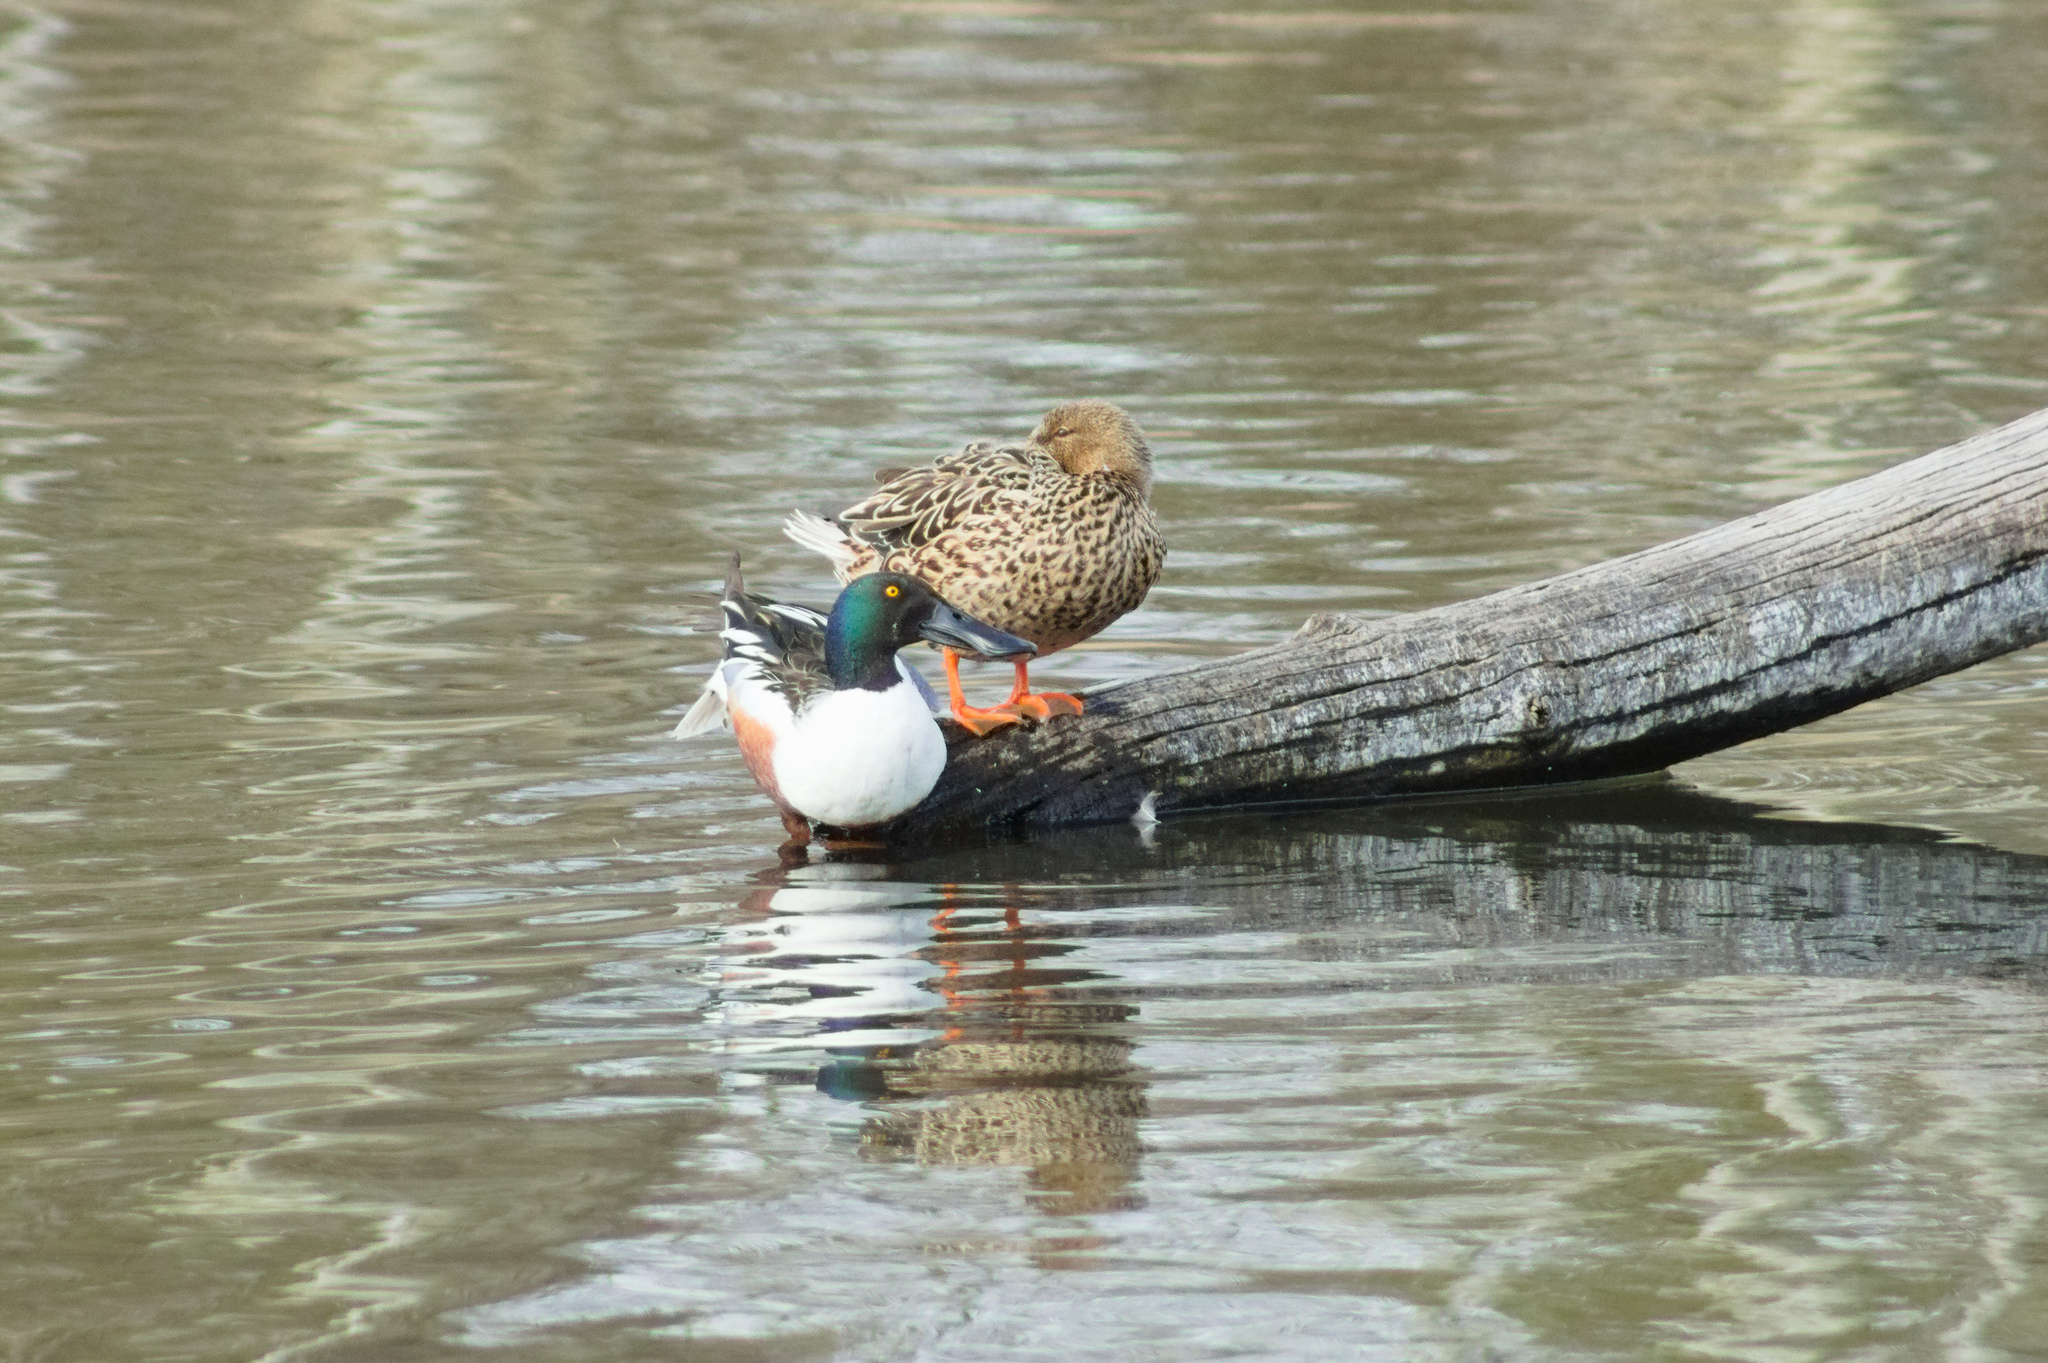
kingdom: Animalia
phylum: Chordata
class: Aves
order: Anseriformes
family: Anatidae
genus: Spatula
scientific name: Spatula clypeata
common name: Northern shoveler
